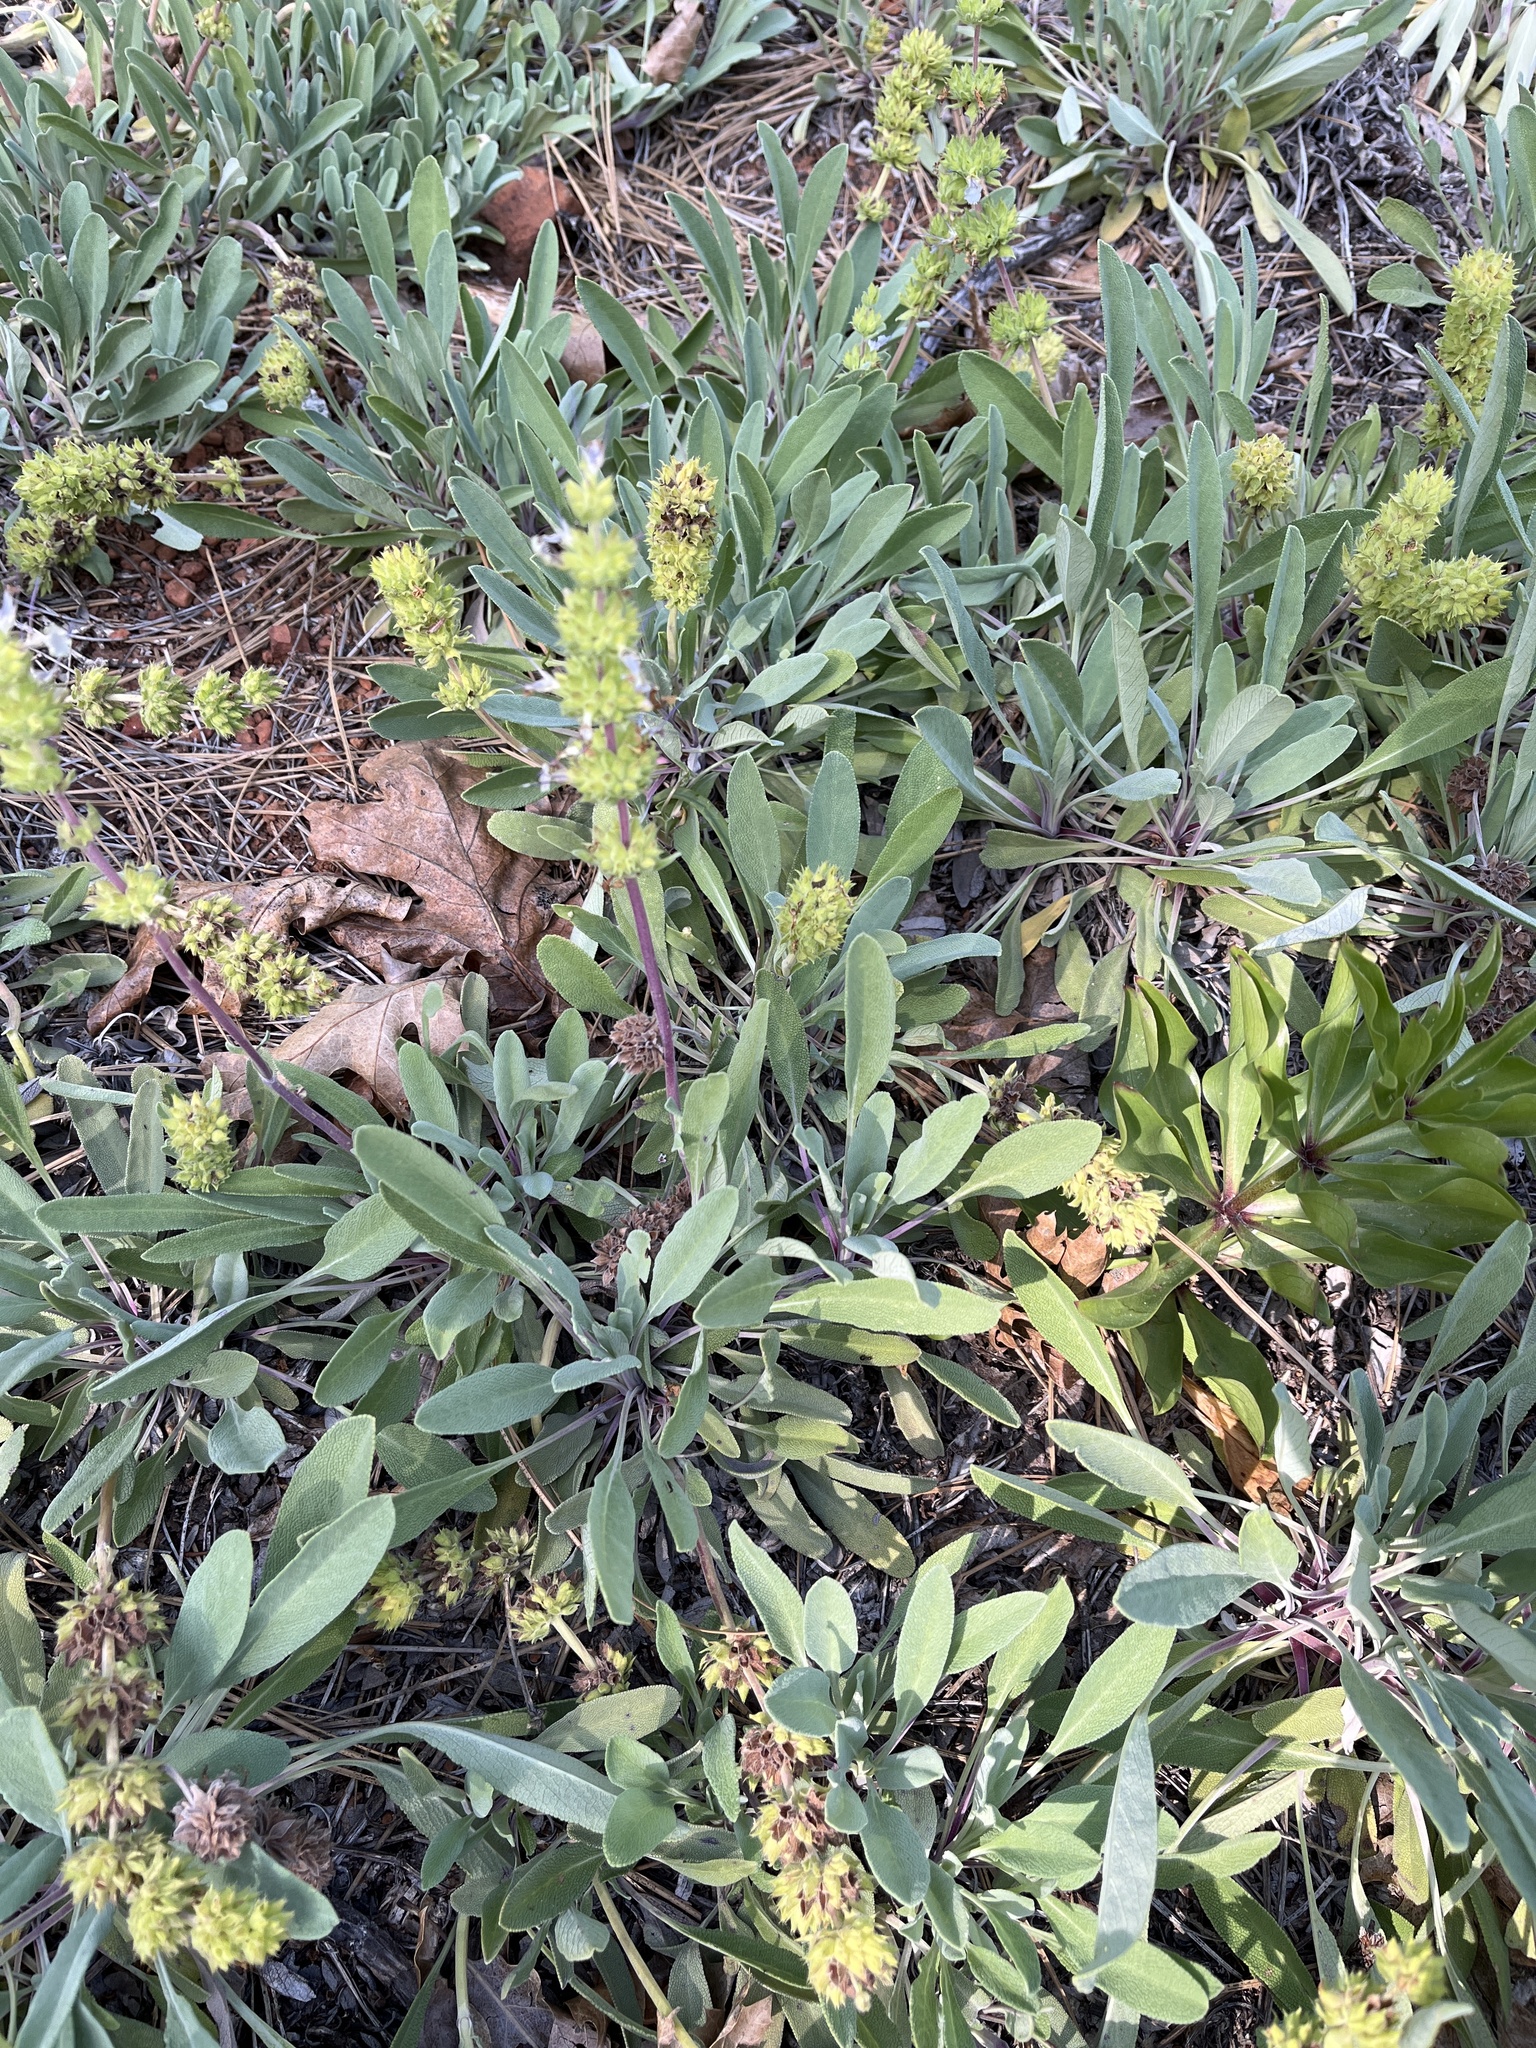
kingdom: Plantae
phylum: Tracheophyta
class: Magnoliopsida
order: Lamiales
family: Lamiaceae
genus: Salvia
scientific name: Salvia sonomensis
